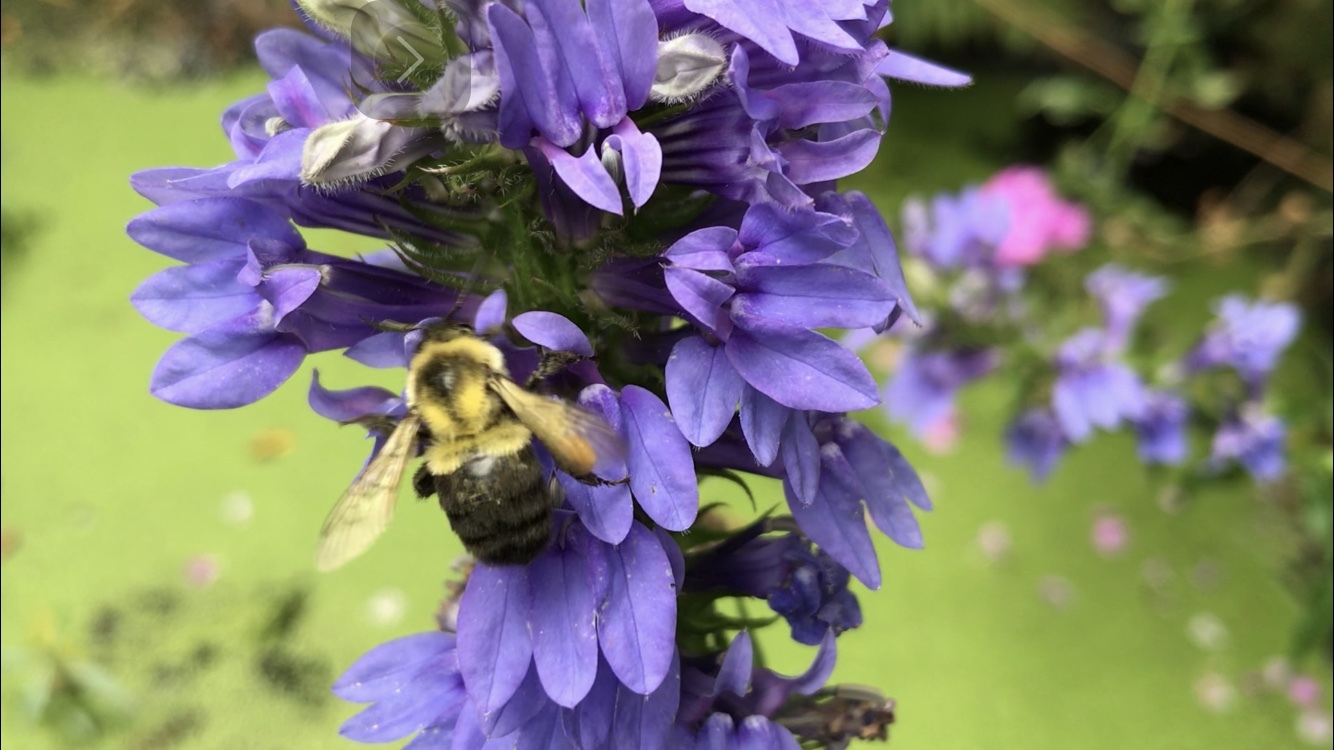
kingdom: Animalia
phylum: Arthropoda
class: Insecta
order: Hymenoptera
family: Apidae
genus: Bombus
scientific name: Bombus impatiens
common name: Common eastern bumble bee
